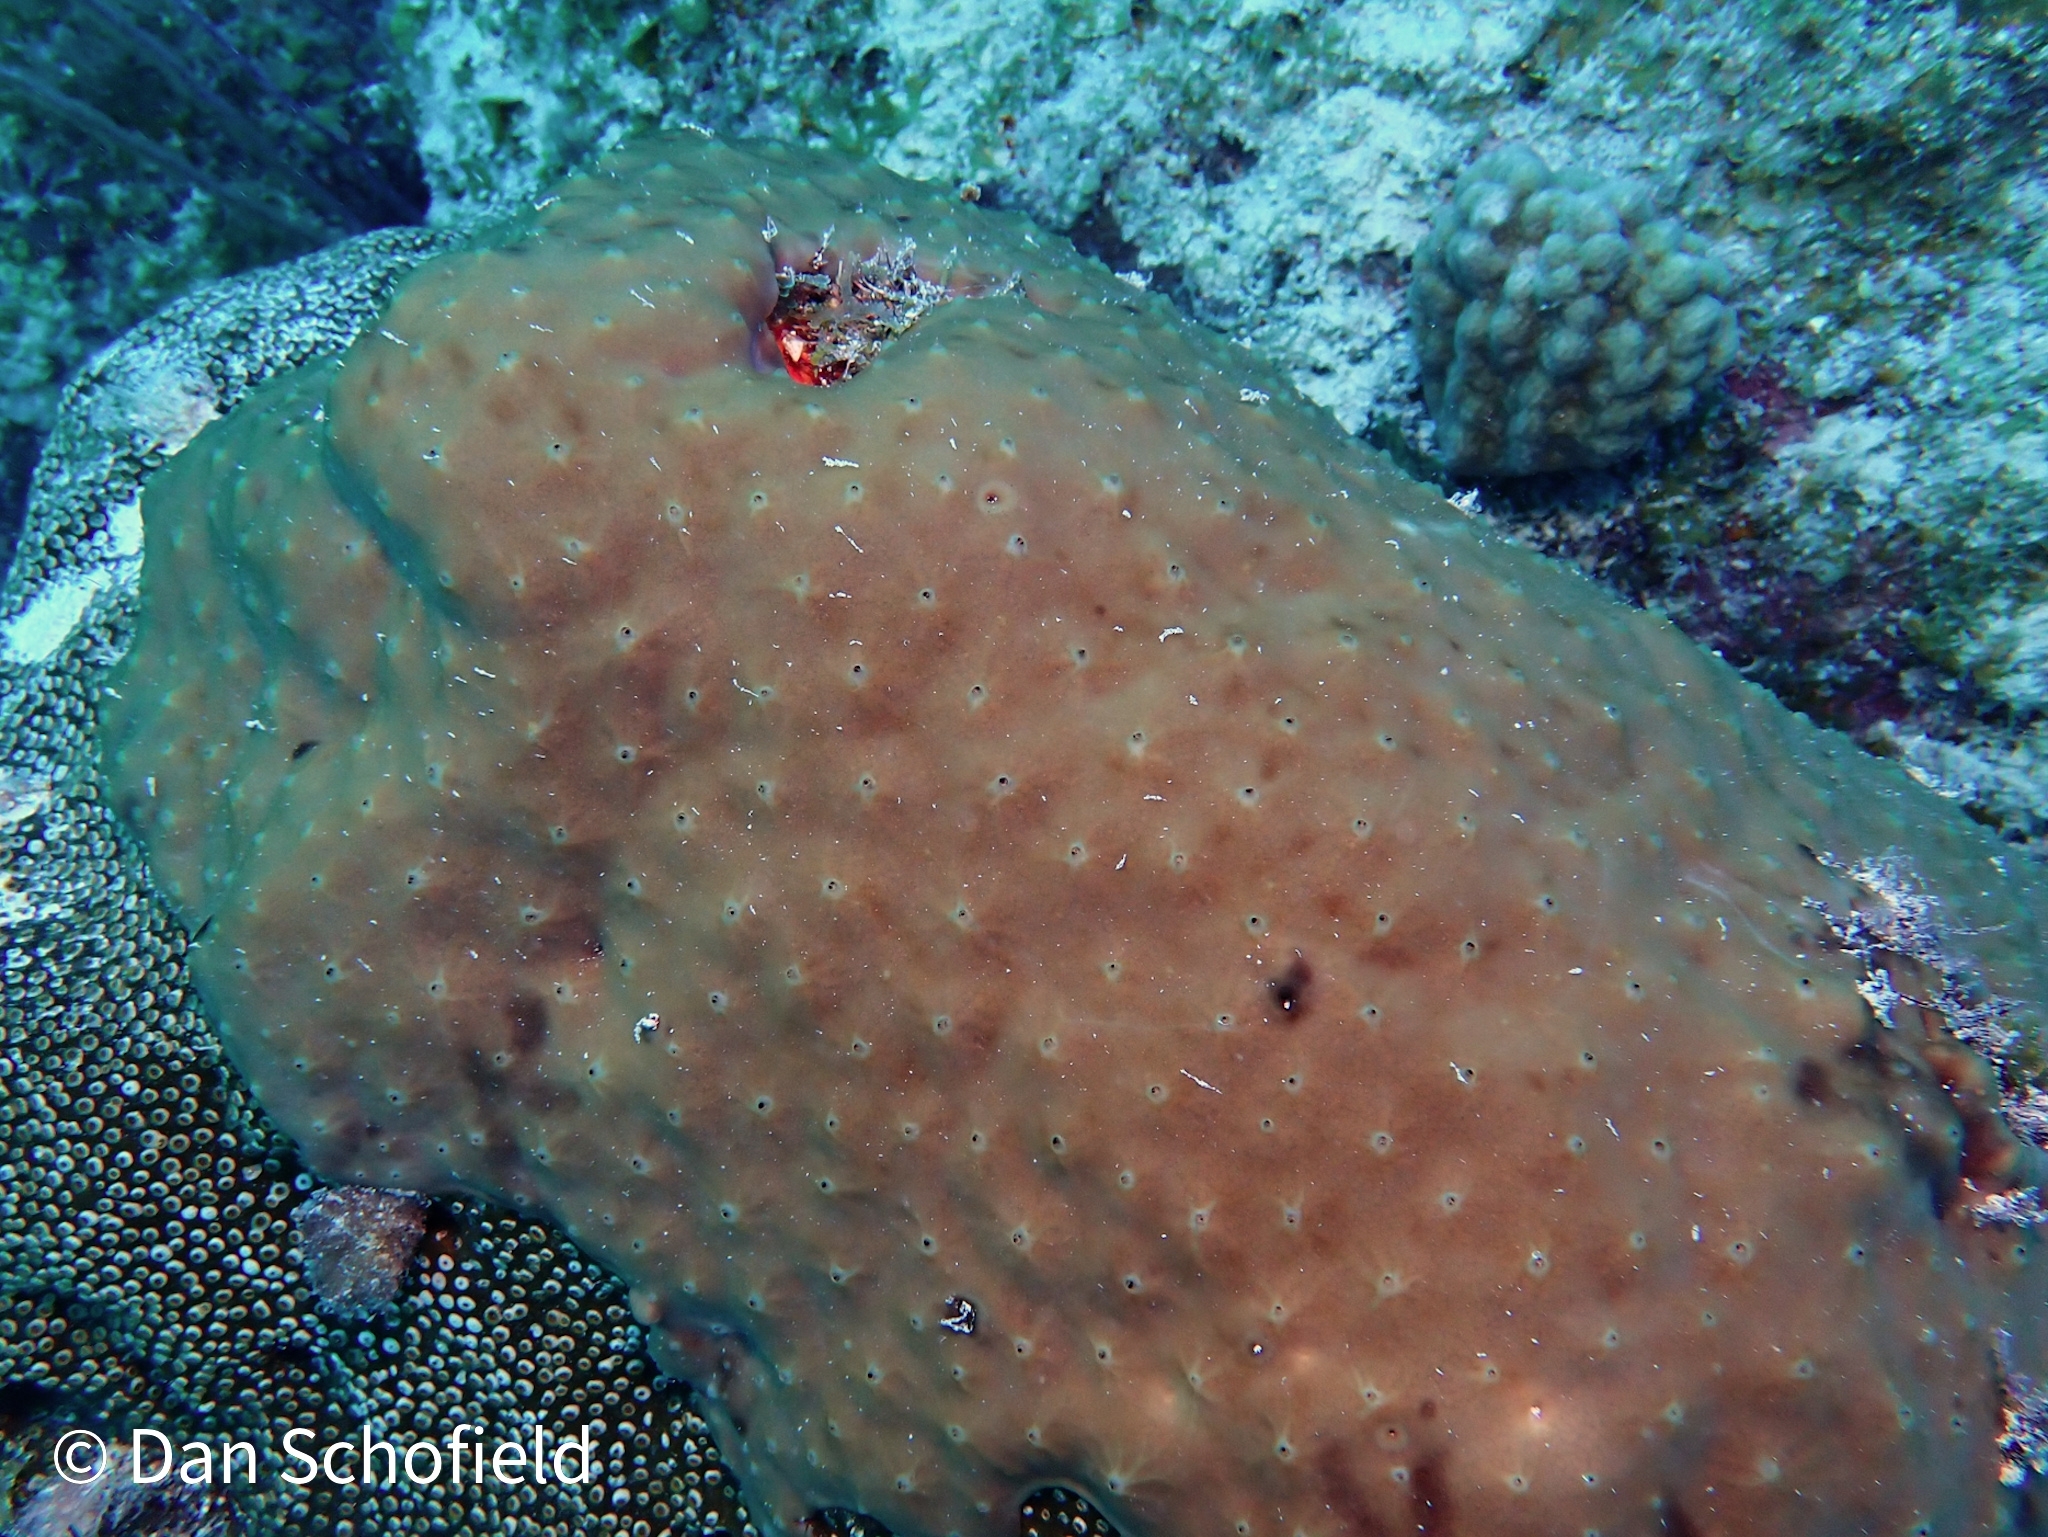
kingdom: Animalia
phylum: Porifera
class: Demospongiae
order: Chondrillida
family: Chondrillidae
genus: Chondrilla
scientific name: Chondrilla caribensis
